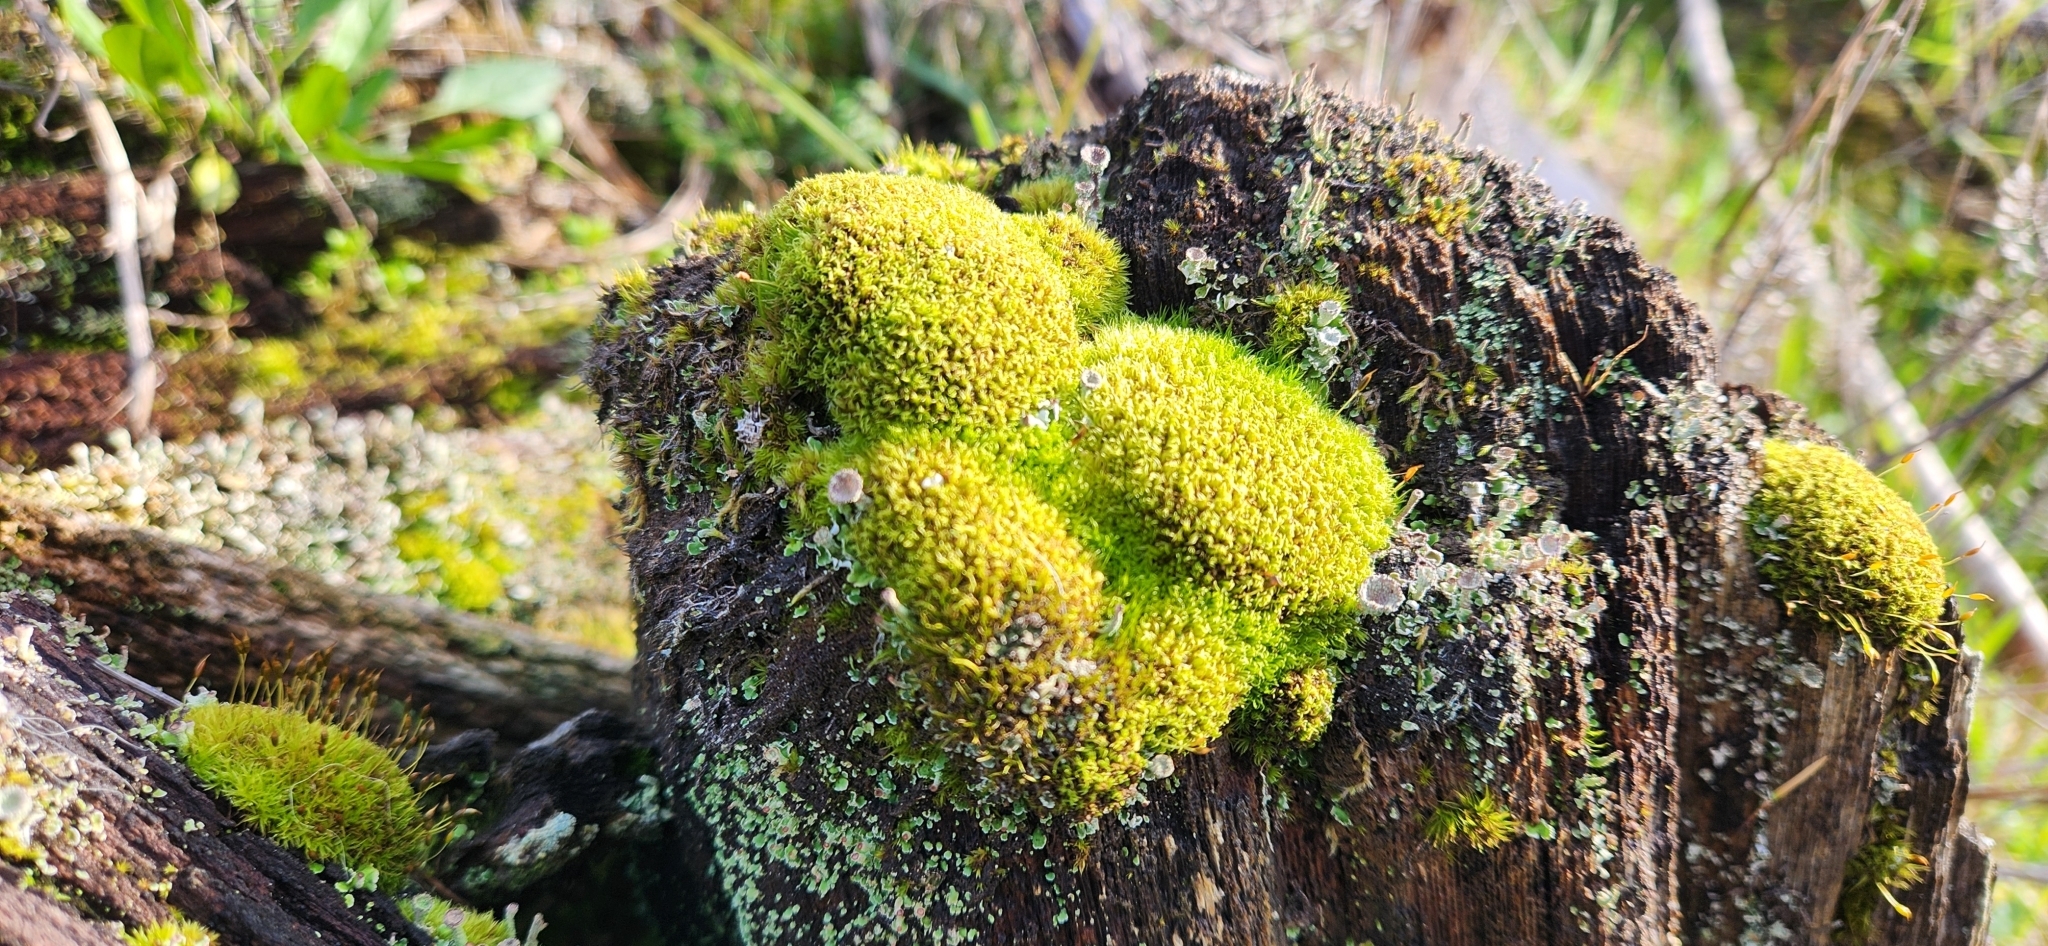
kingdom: Plantae
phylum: Bryophyta
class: Bryopsida
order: Dicranales
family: Rhabdoweisiaceae
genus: Dicranoweisia
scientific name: Dicranoweisia cirrata
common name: Common pincushion
